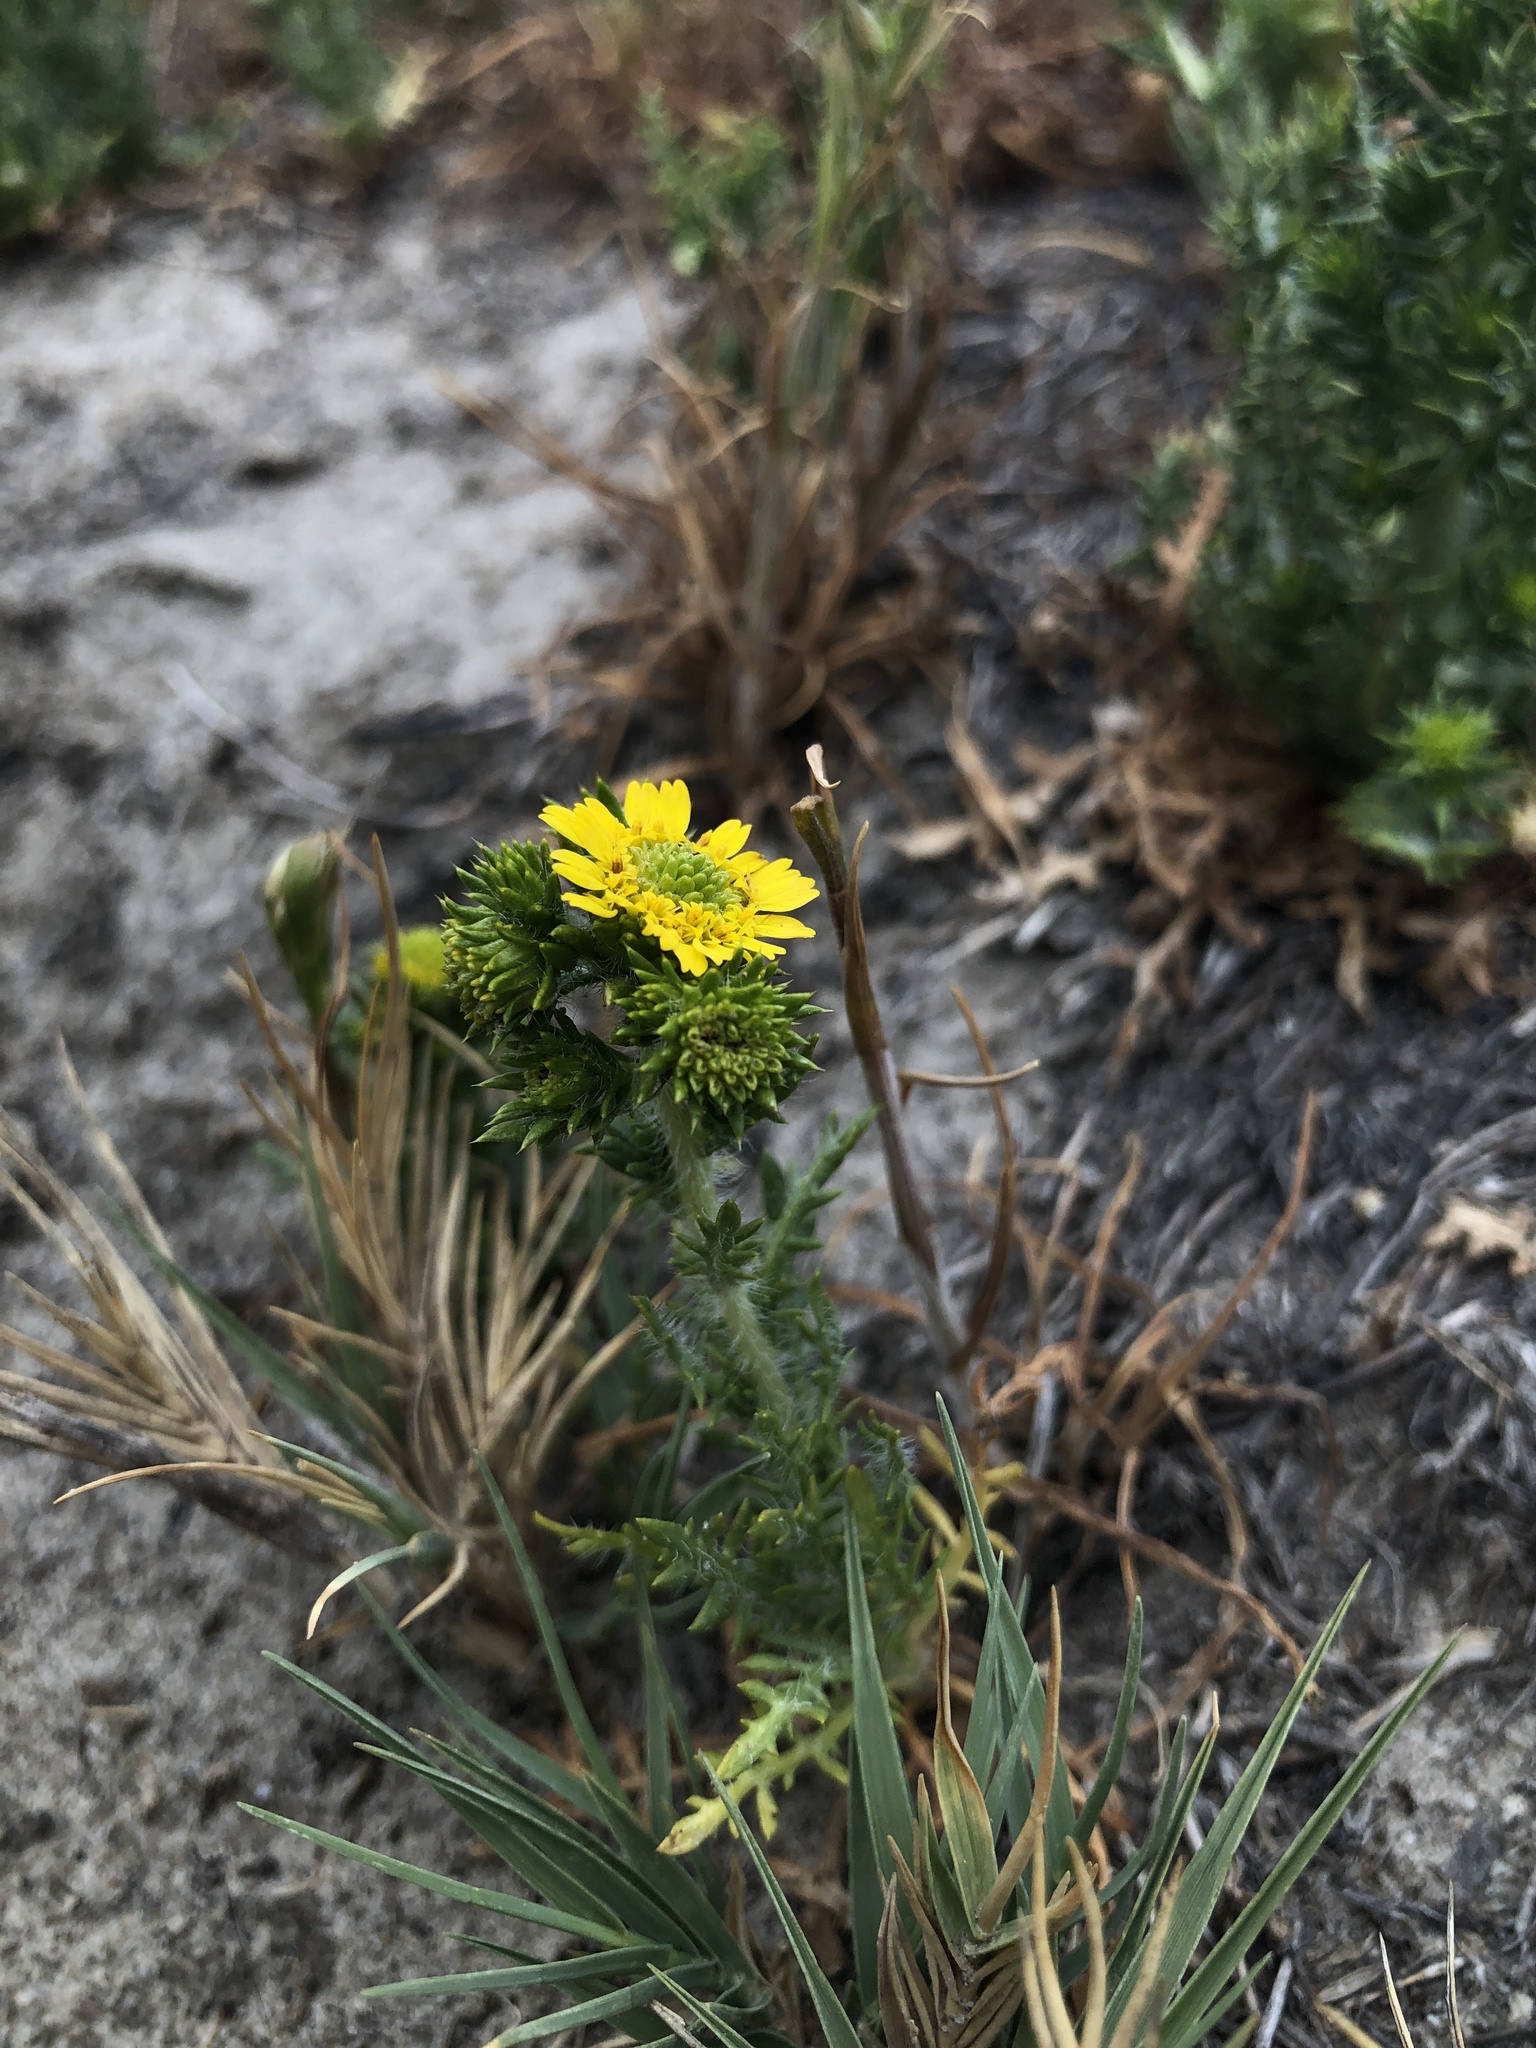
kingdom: Plantae
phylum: Tracheophyta
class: Magnoliopsida
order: Asterales
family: Asteraceae
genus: Centromadia
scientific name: Centromadia pungens
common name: Common spikeweed
